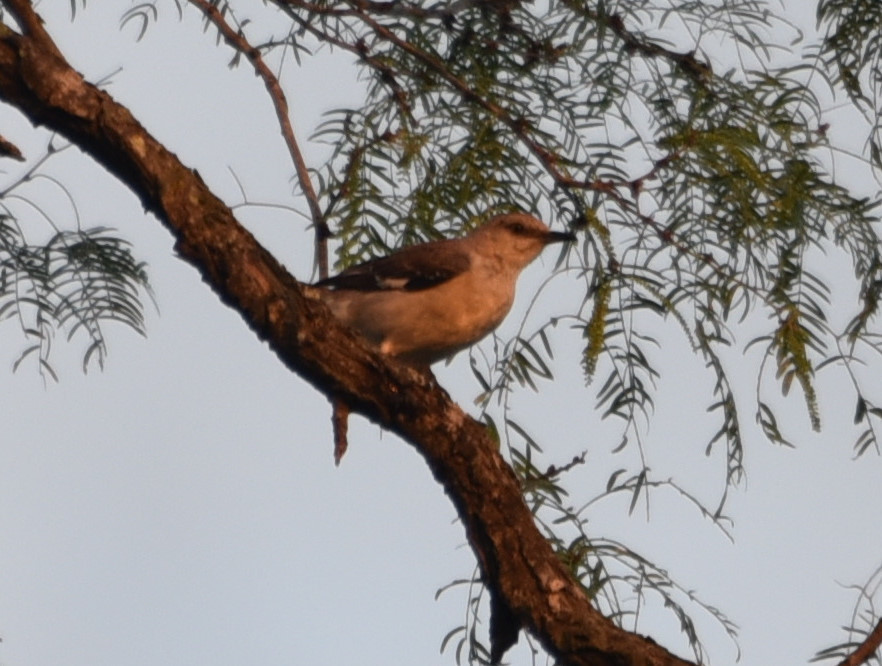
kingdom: Animalia
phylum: Chordata
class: Aves
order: Passeriformes
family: Mimidae
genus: Mimus
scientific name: Mimus polyglottos
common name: Northern mockingbird
